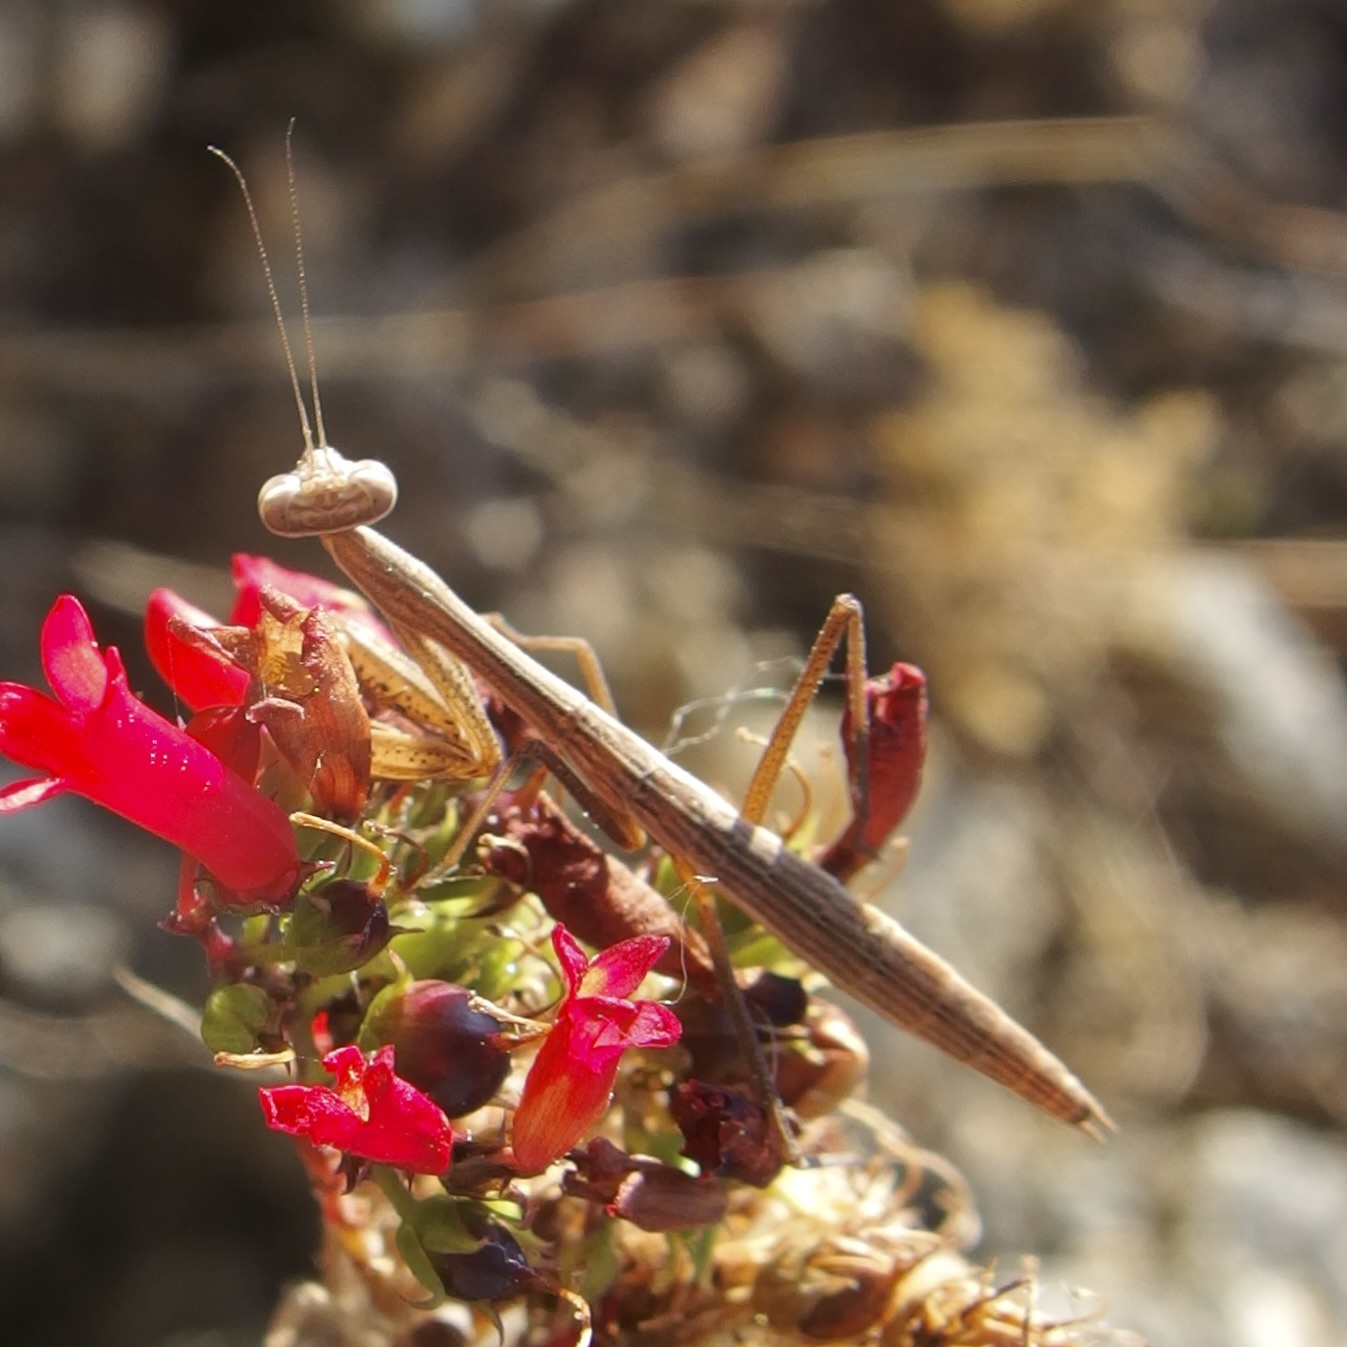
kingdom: Animalia
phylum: Arthropoda
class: Insecta
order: Mantodea
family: Mantidae
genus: Stagmomantis
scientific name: Stagmomantis nahua
